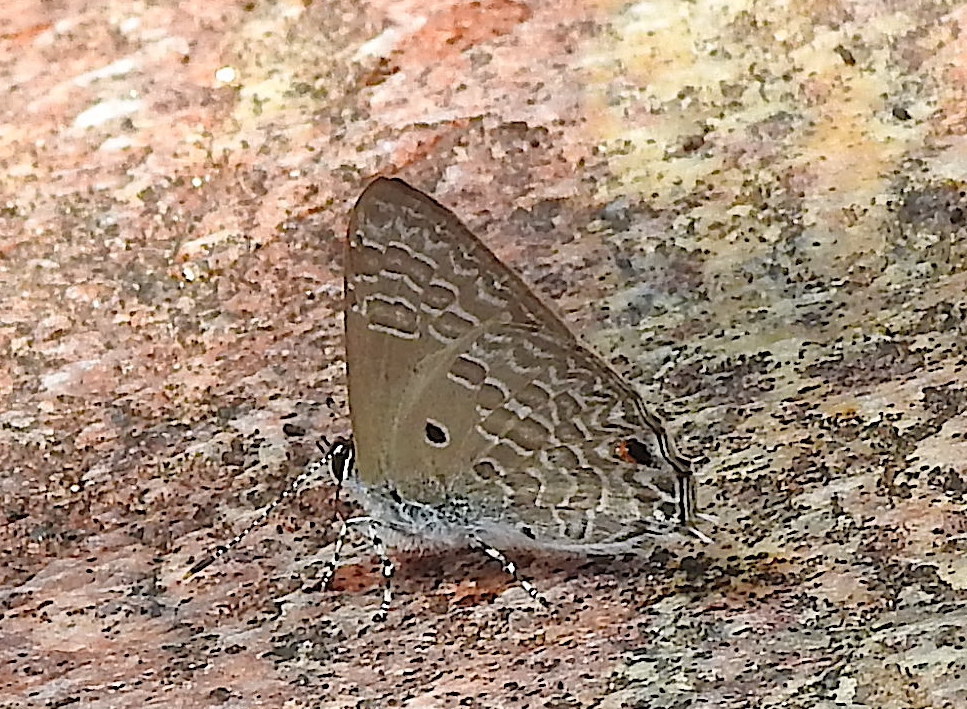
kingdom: Animalia
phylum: Arthropoda
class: Insecta
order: Lepidoptera
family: Lycaenidae
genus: Anthene
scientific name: Anthene lycaenina
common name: Pointed ciliate blue
